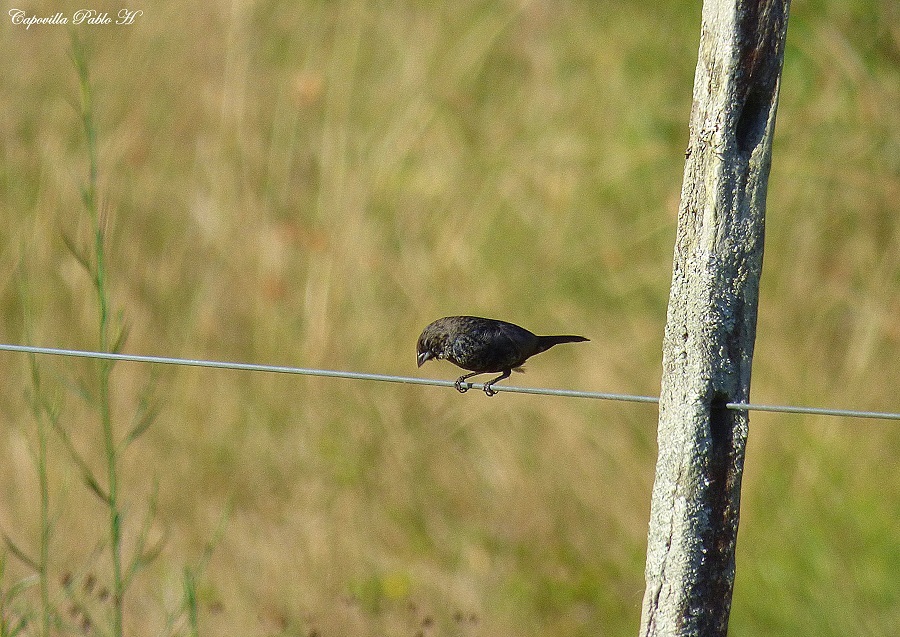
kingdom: Animalia
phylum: Chordata
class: Aves
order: Passeriformes
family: Thraupidae
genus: Volatinia
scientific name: Volatinia jacarina
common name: Blue-black grassquit
